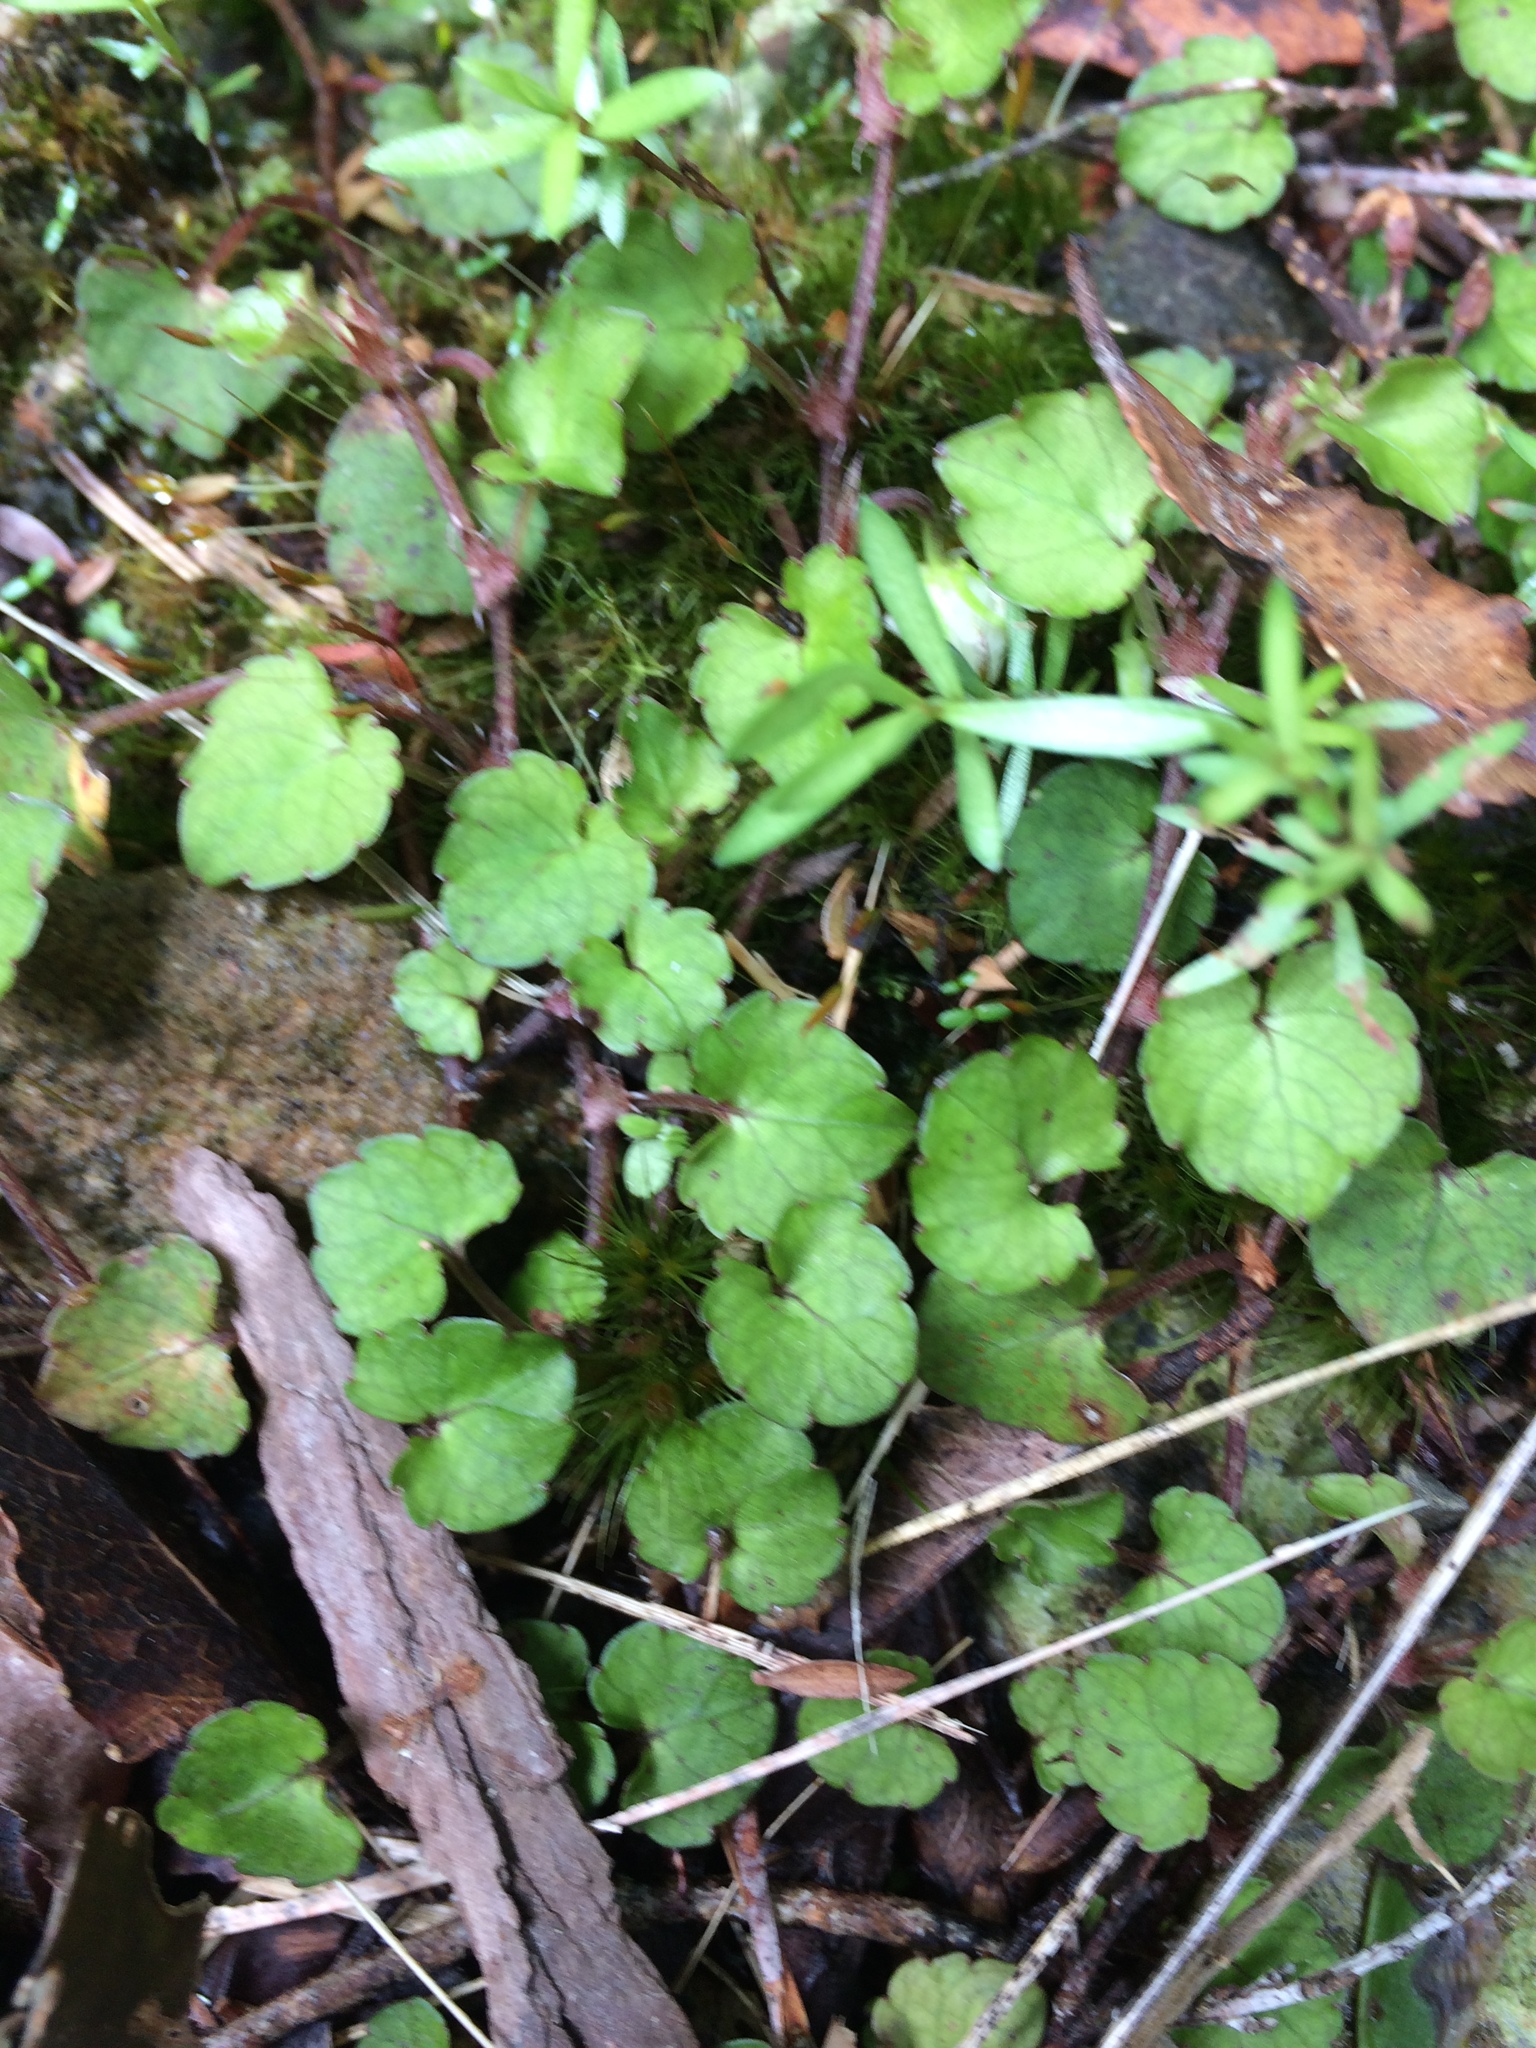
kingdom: Plantae
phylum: Tracheophyta
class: Magnoliopsida
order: Malpighiales
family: Violaceae
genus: Viola
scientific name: Viola filicaulis
